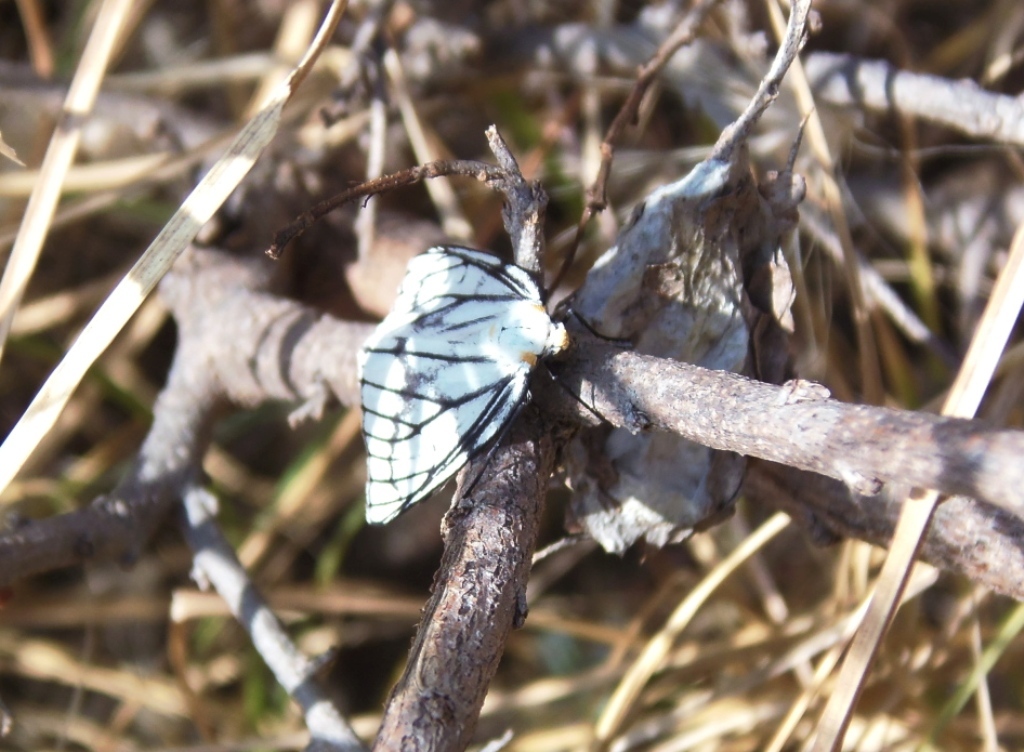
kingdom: Animalia
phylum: Arthropoda
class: Insecta
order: Lepidoptera
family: Geometridae
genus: Neuromelia
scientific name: Neuromelia selectata
